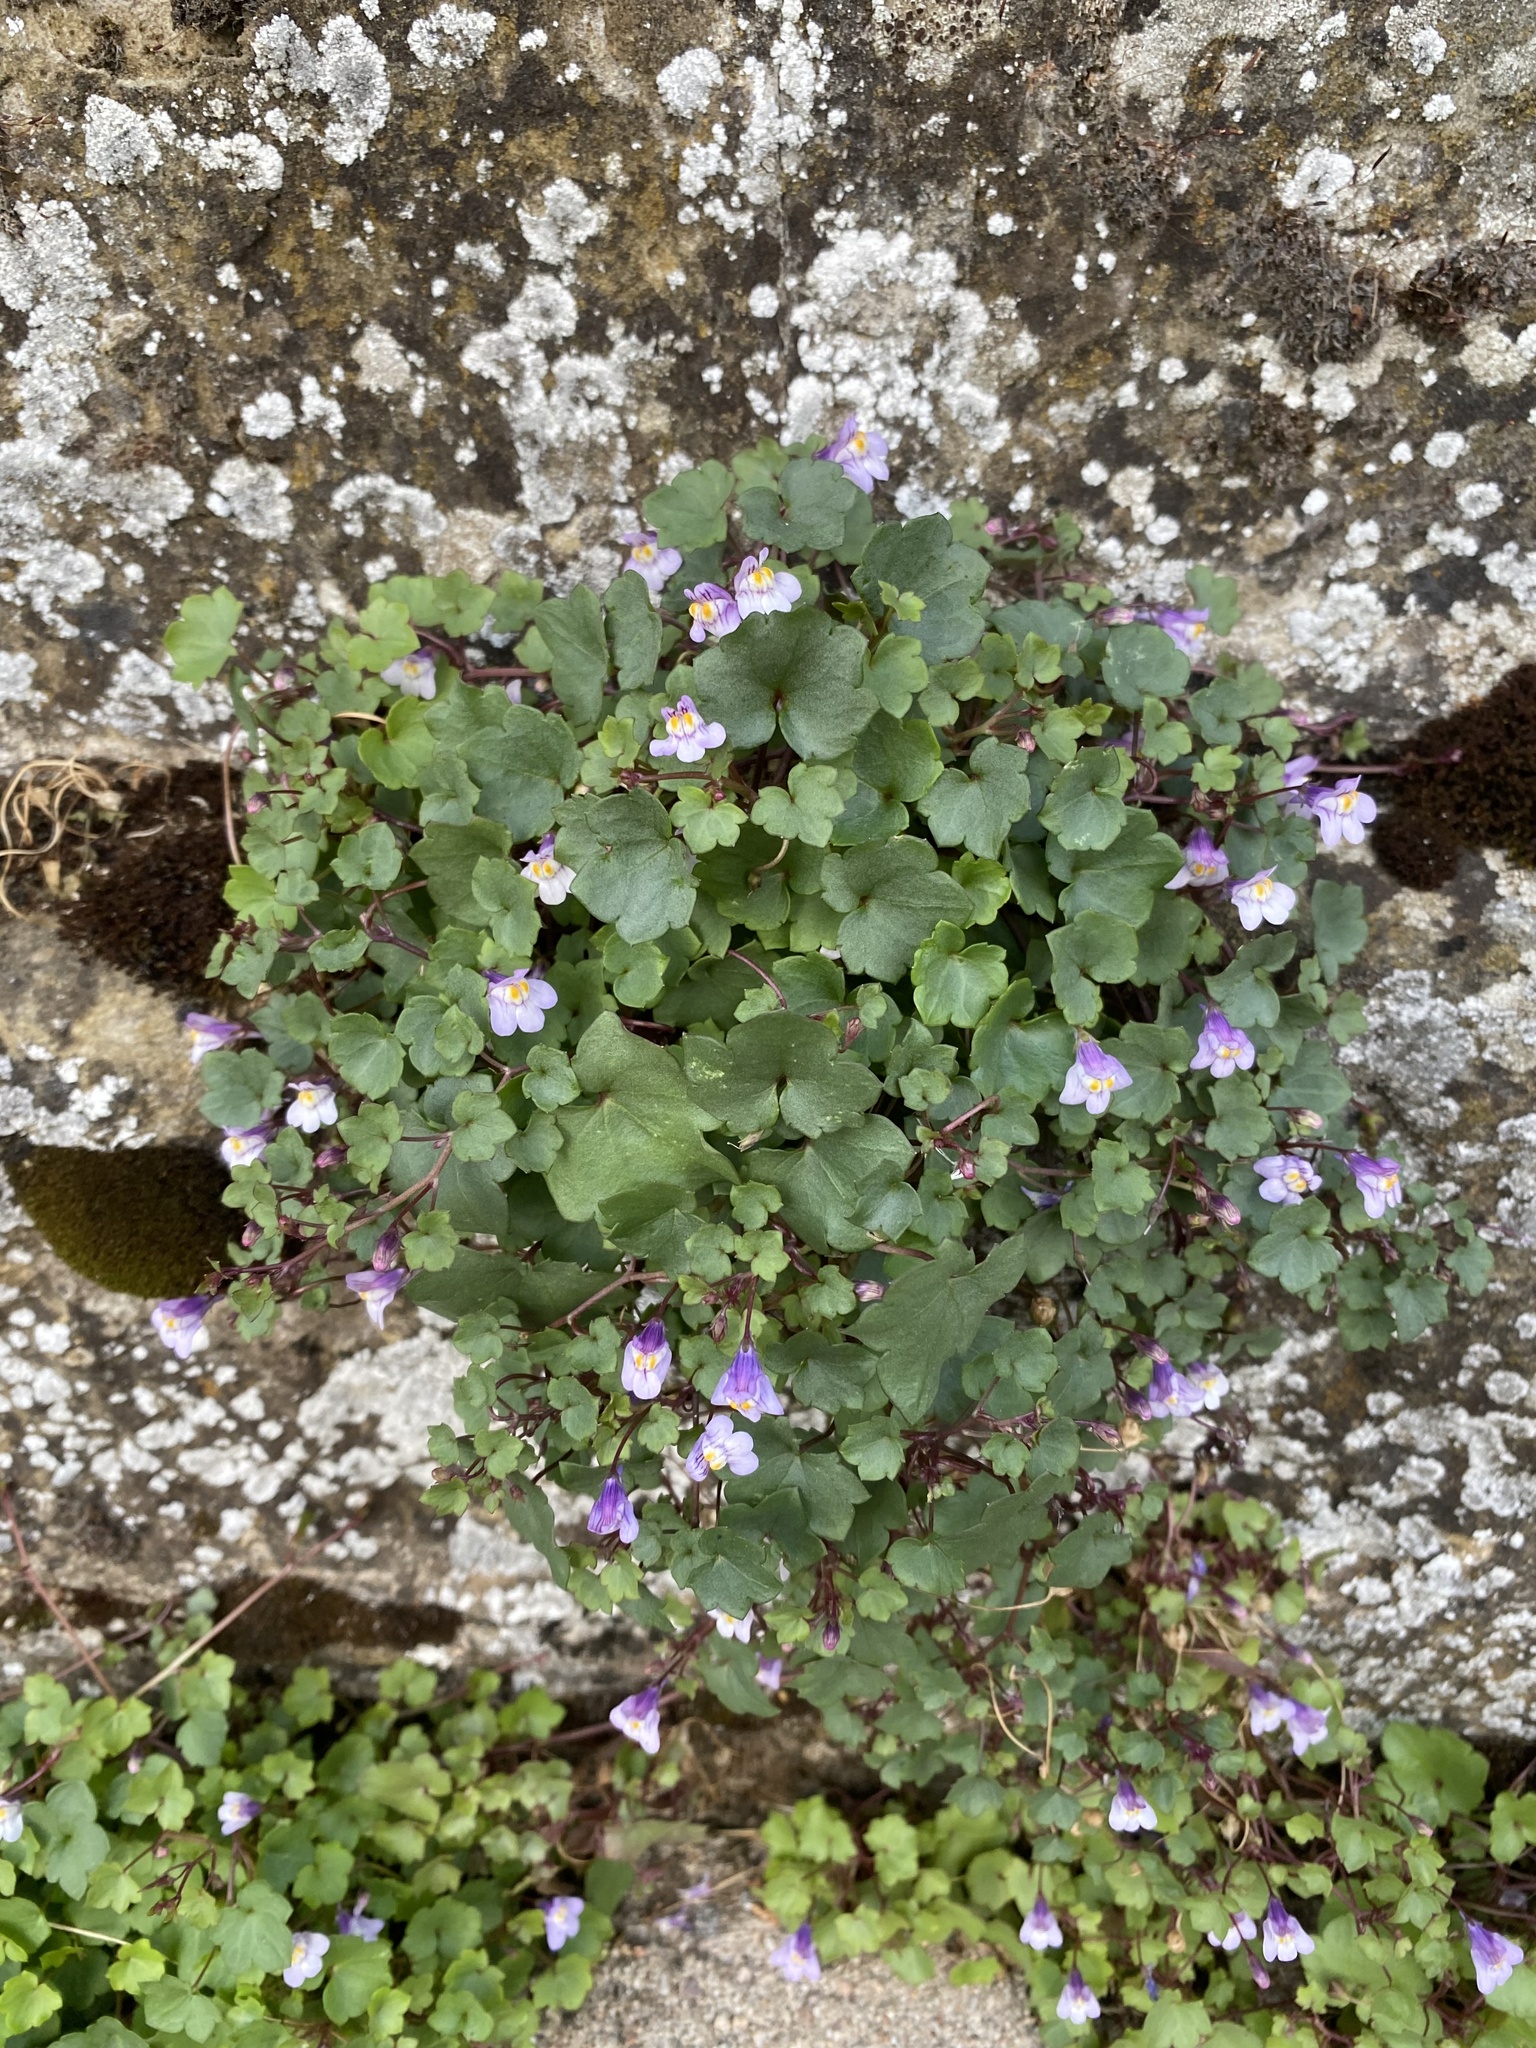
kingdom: Plantae
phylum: Tracheophyta
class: Magnoliopsida
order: Lamiales
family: Plantaginaceae
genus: Cymbalaria
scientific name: Cymbalaria muralis
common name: Ivy-leaved toadflax
